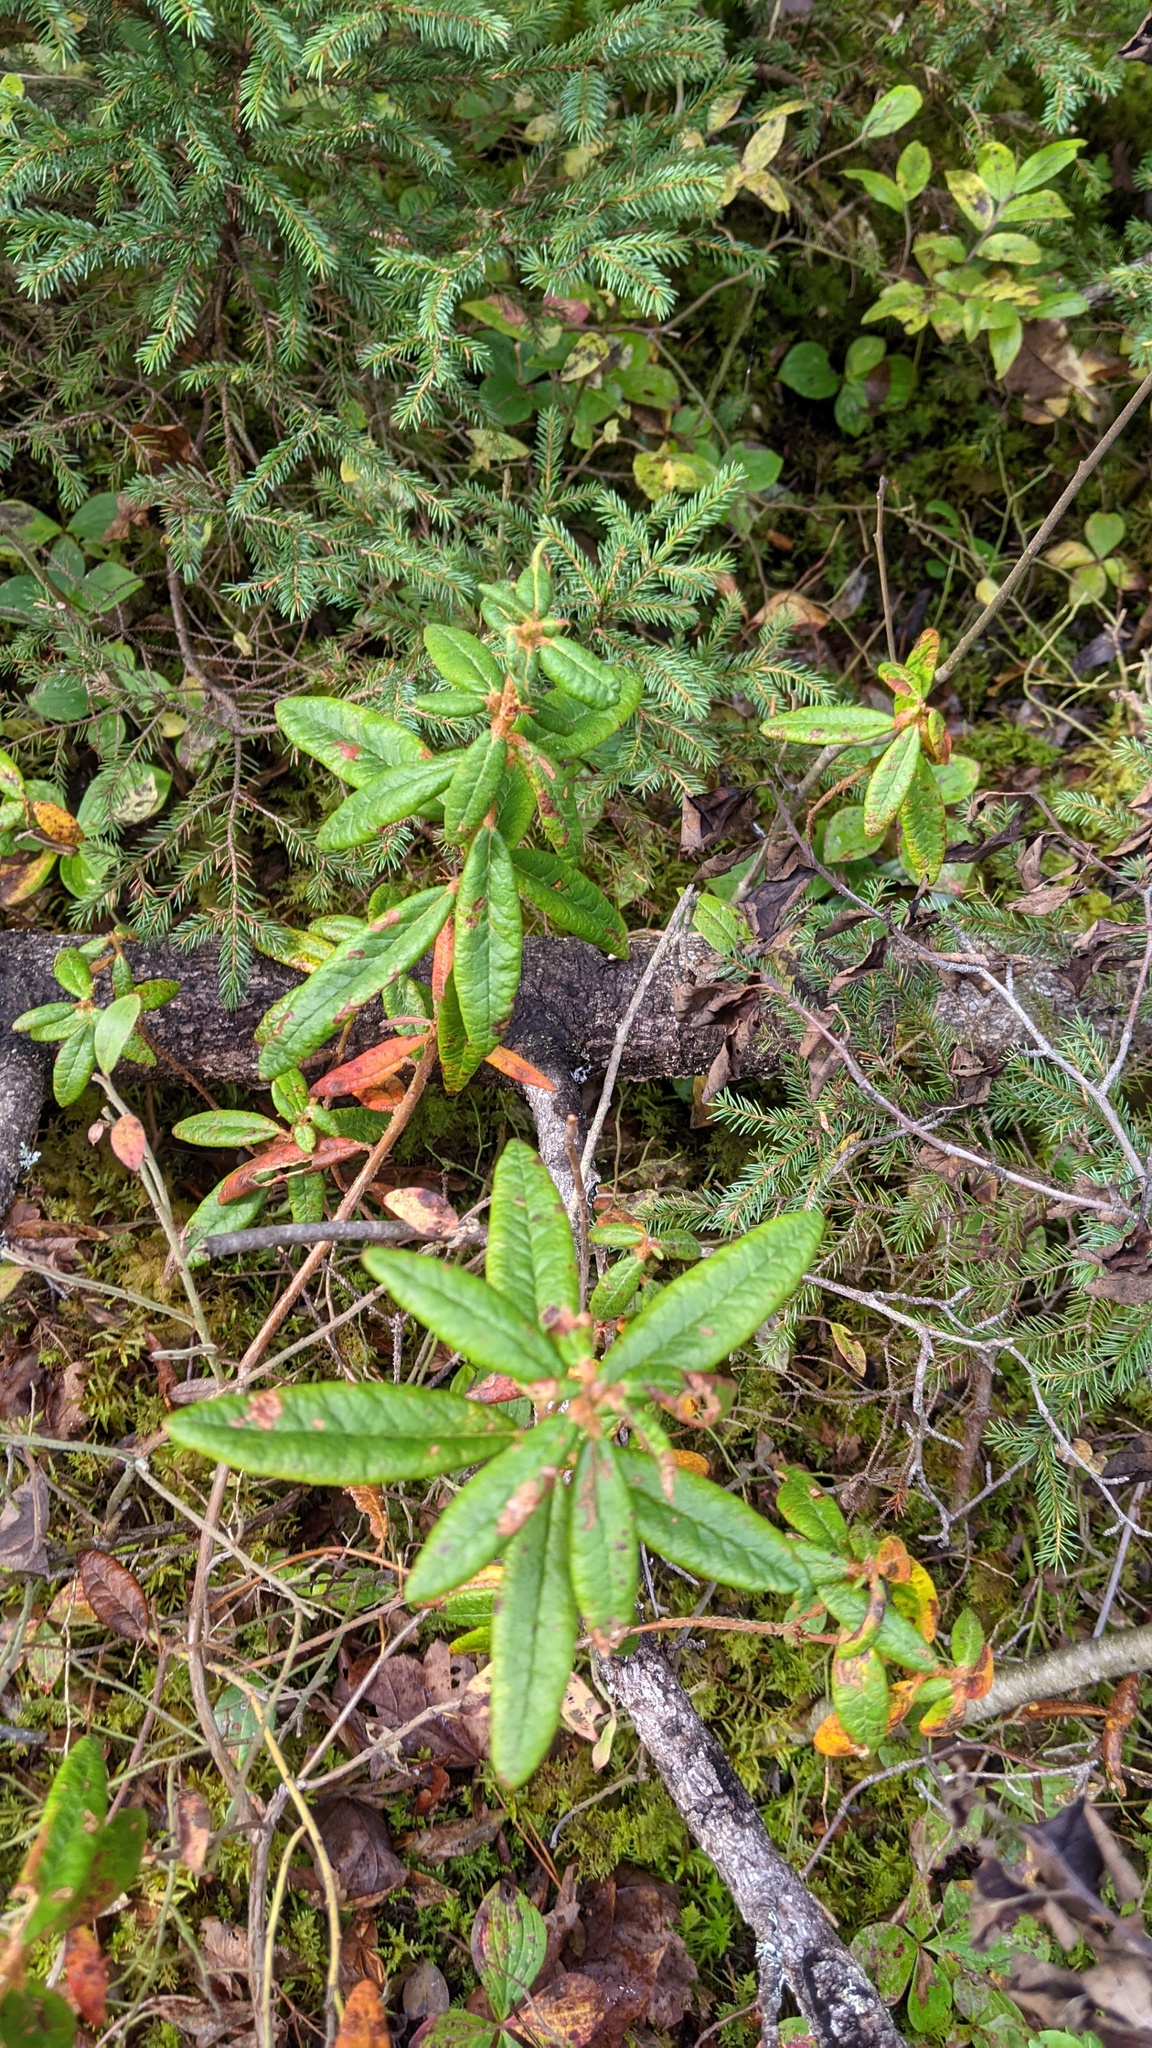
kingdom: Plantae
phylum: Tracheophyta
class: Magnoliopsida
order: Ericales
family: Ericaceae
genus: Rhododendron
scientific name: Rhododendron groenlandicum
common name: Bog labrador tea
